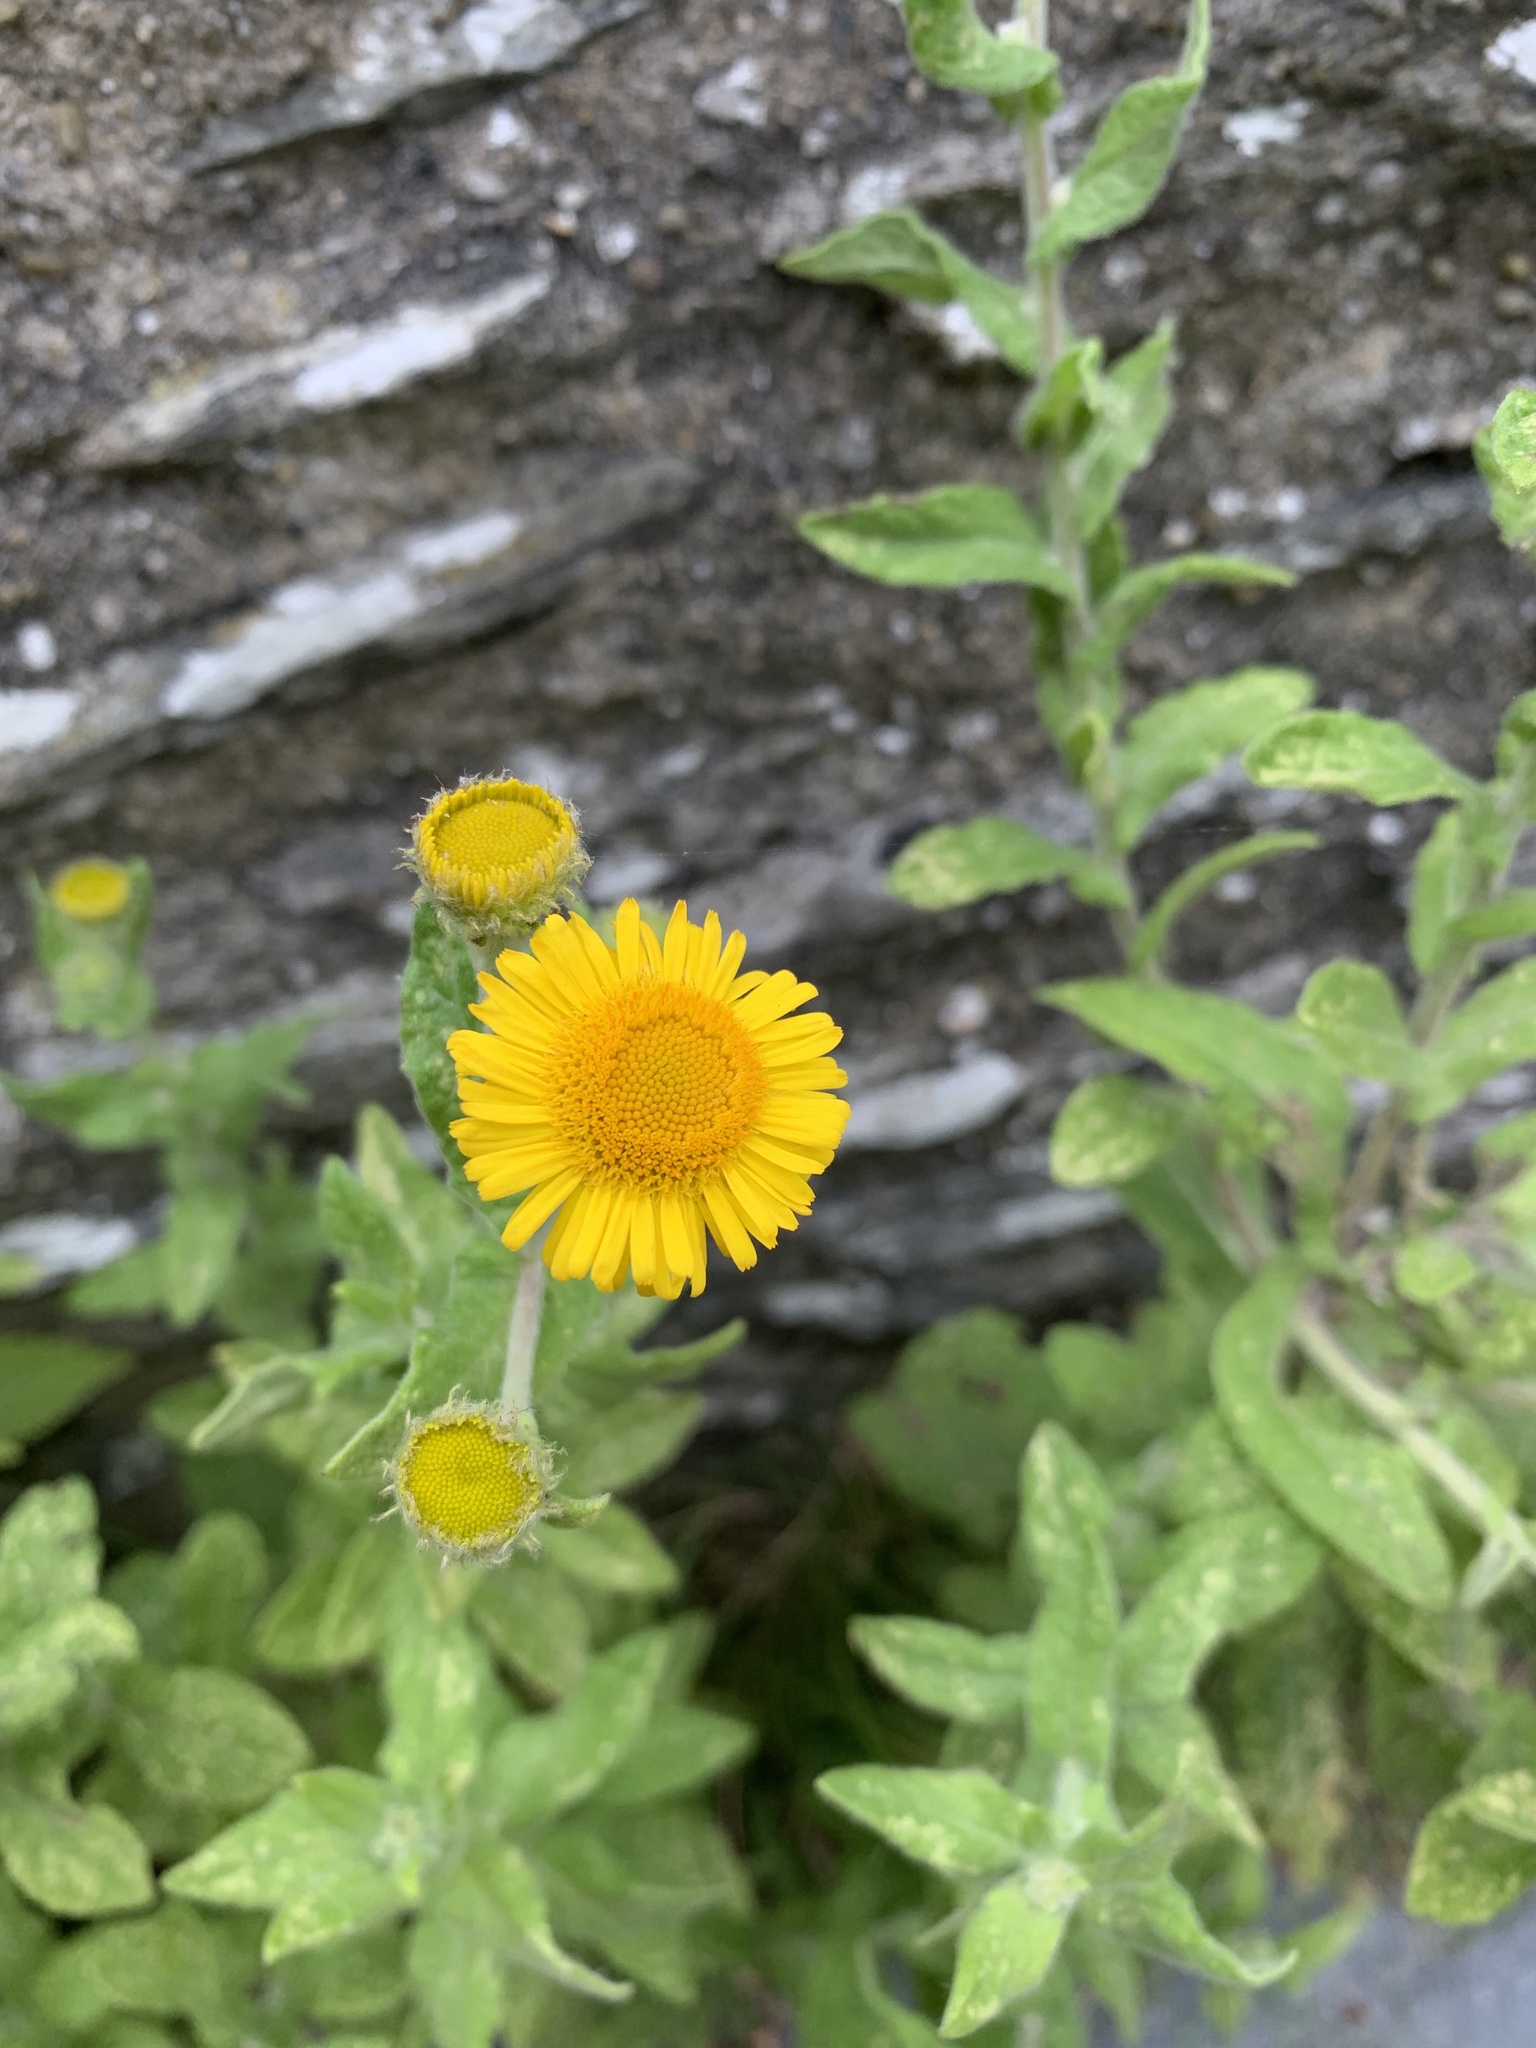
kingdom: Plantae
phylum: Tracheophyta
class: Magnoliopsida
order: Asterales
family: Asteraceae
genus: Pulicaria
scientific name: Pulicaria dysenterica
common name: Common fleabane
